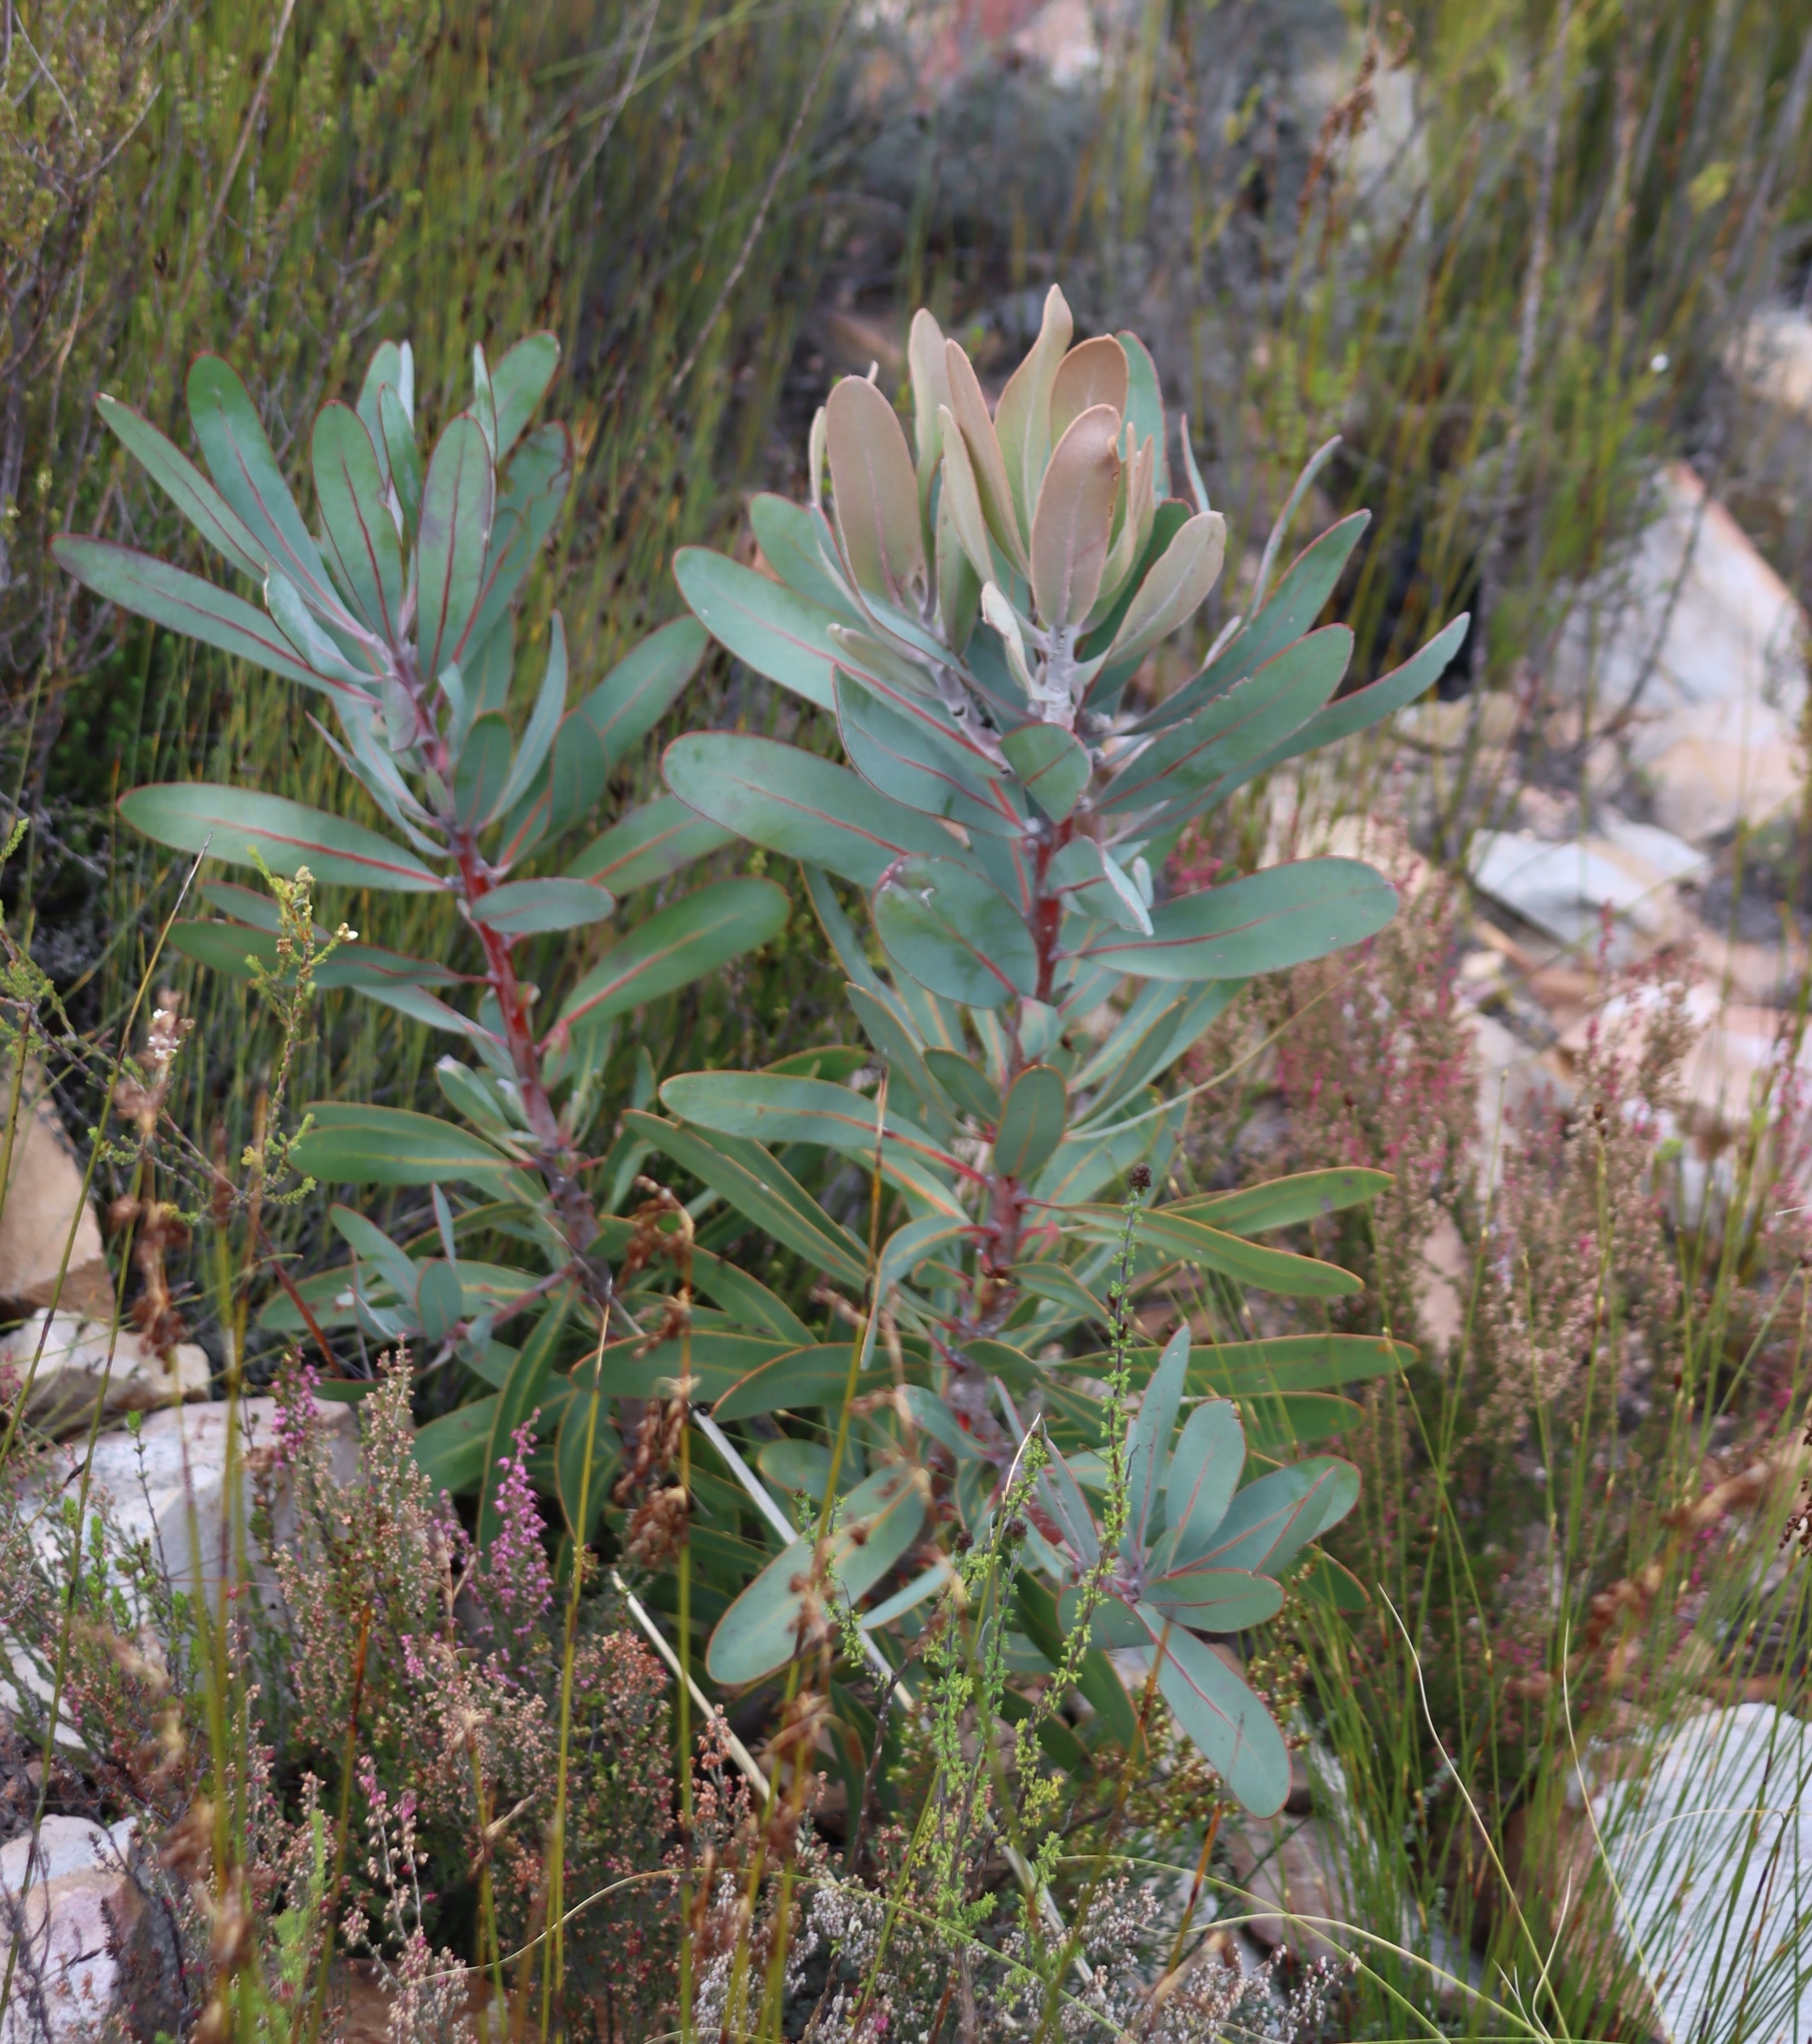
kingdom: Plantae
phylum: Tracheophyta
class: Magnoliopsida
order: Proteales
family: Proteaceae
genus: Protea
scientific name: Protea lorifolia
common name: Strap-leaved protea
